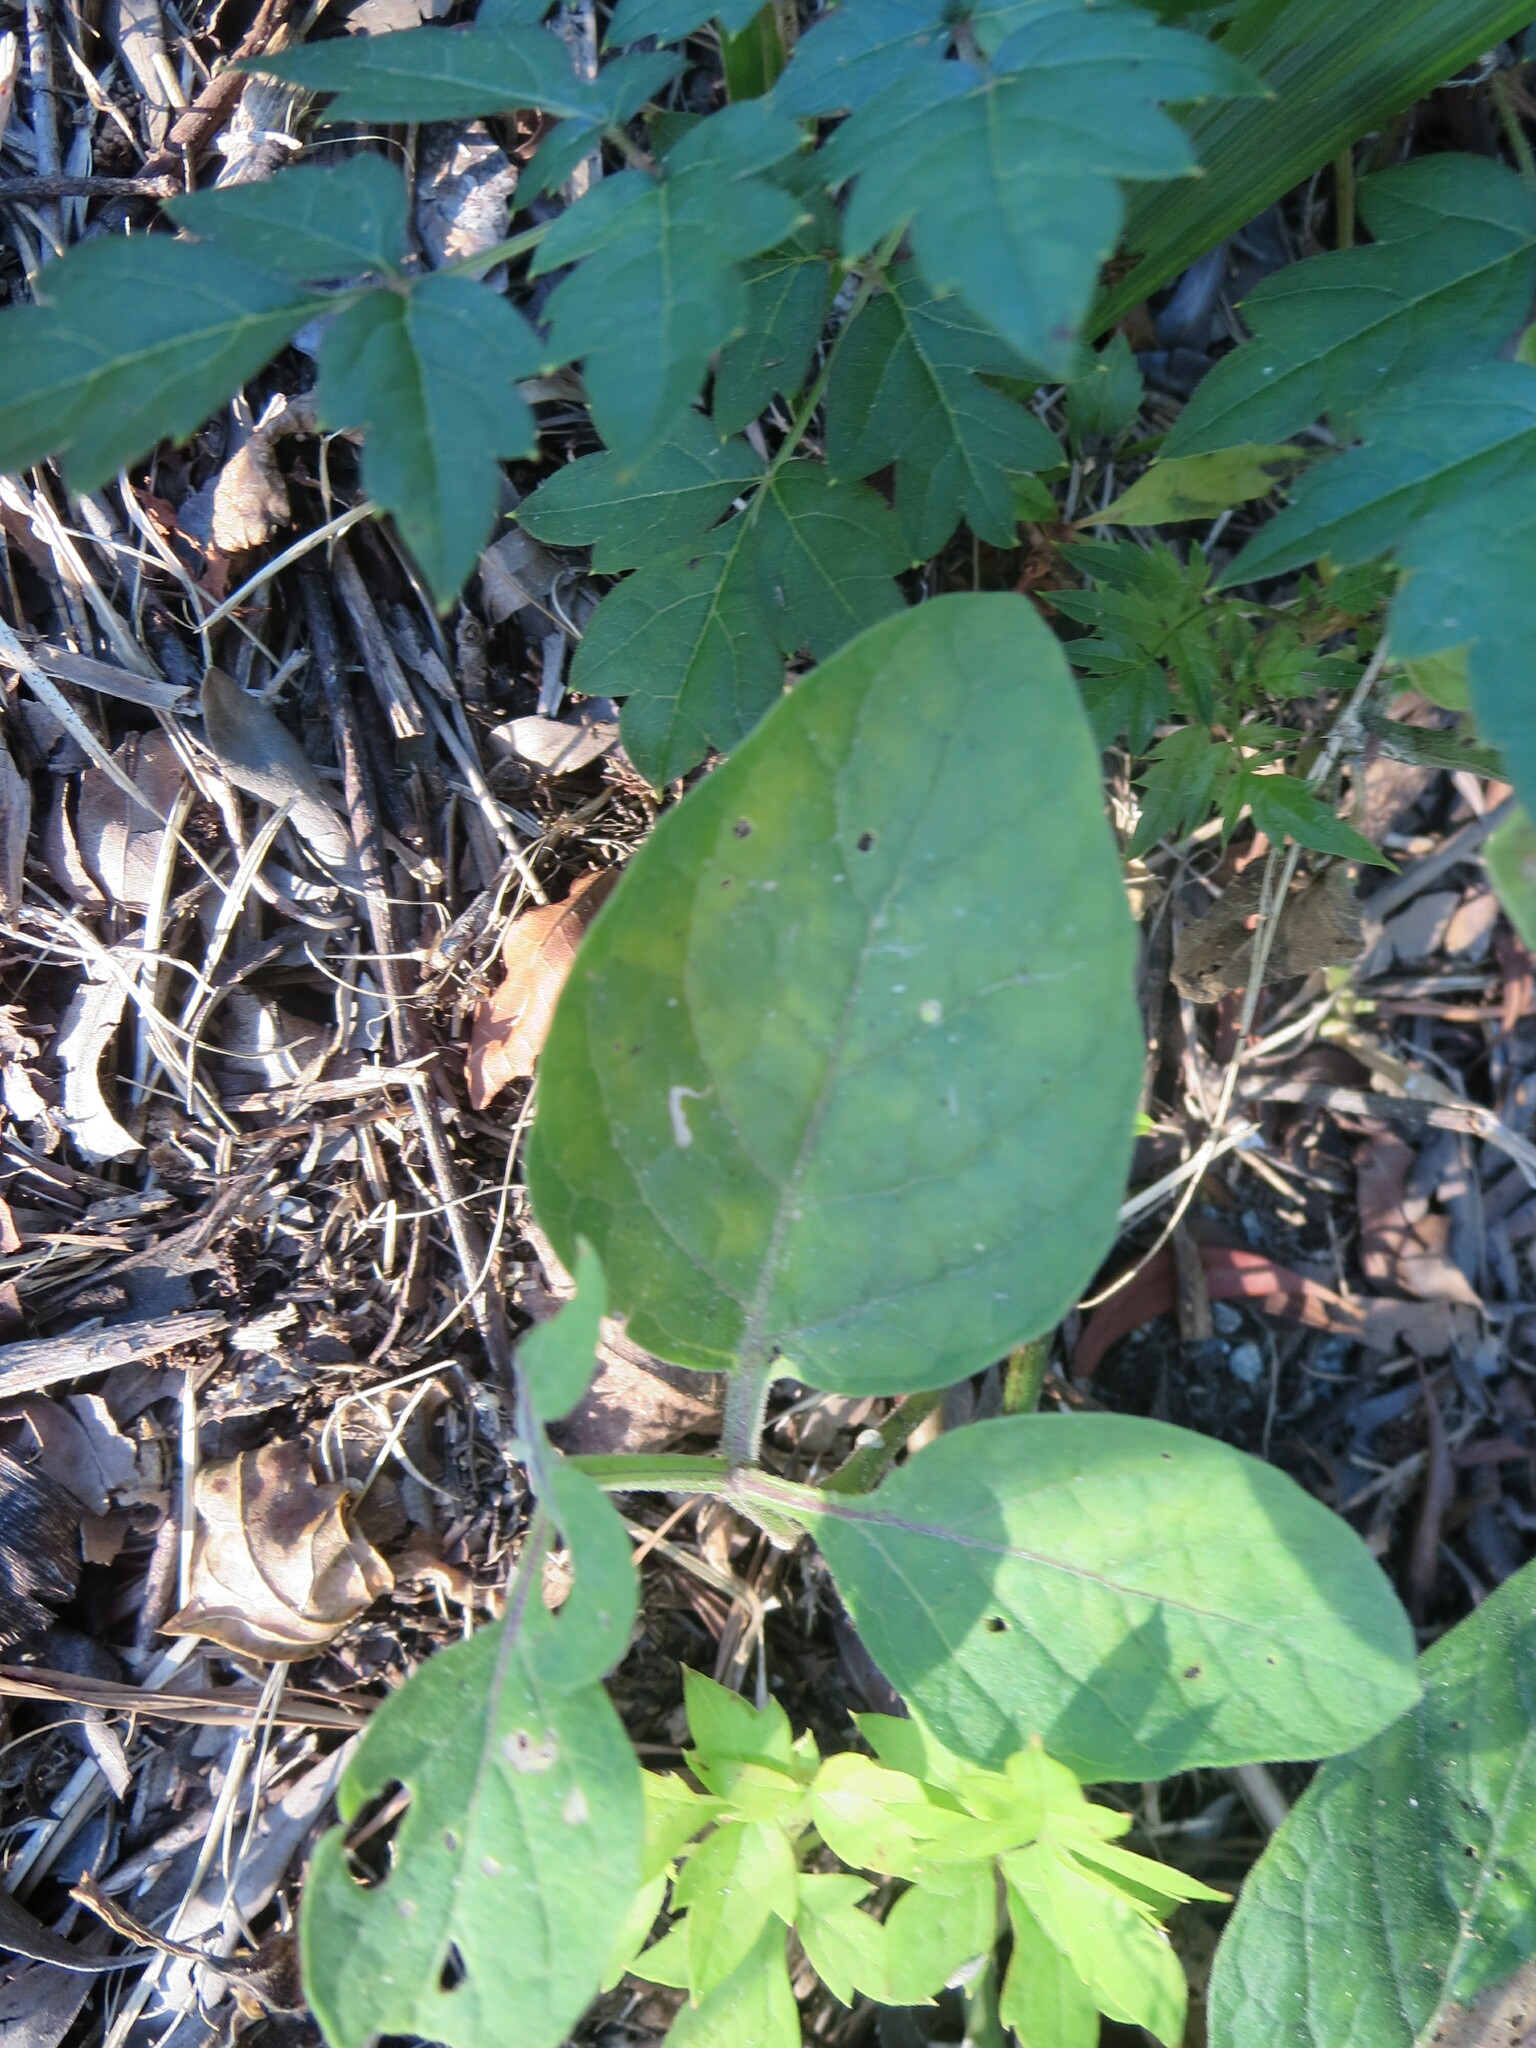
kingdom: Plantae
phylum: Tracheophyta
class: Magnoliopsida
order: Solanales
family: Solanaceae
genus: Physalis
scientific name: Physalis walteri
